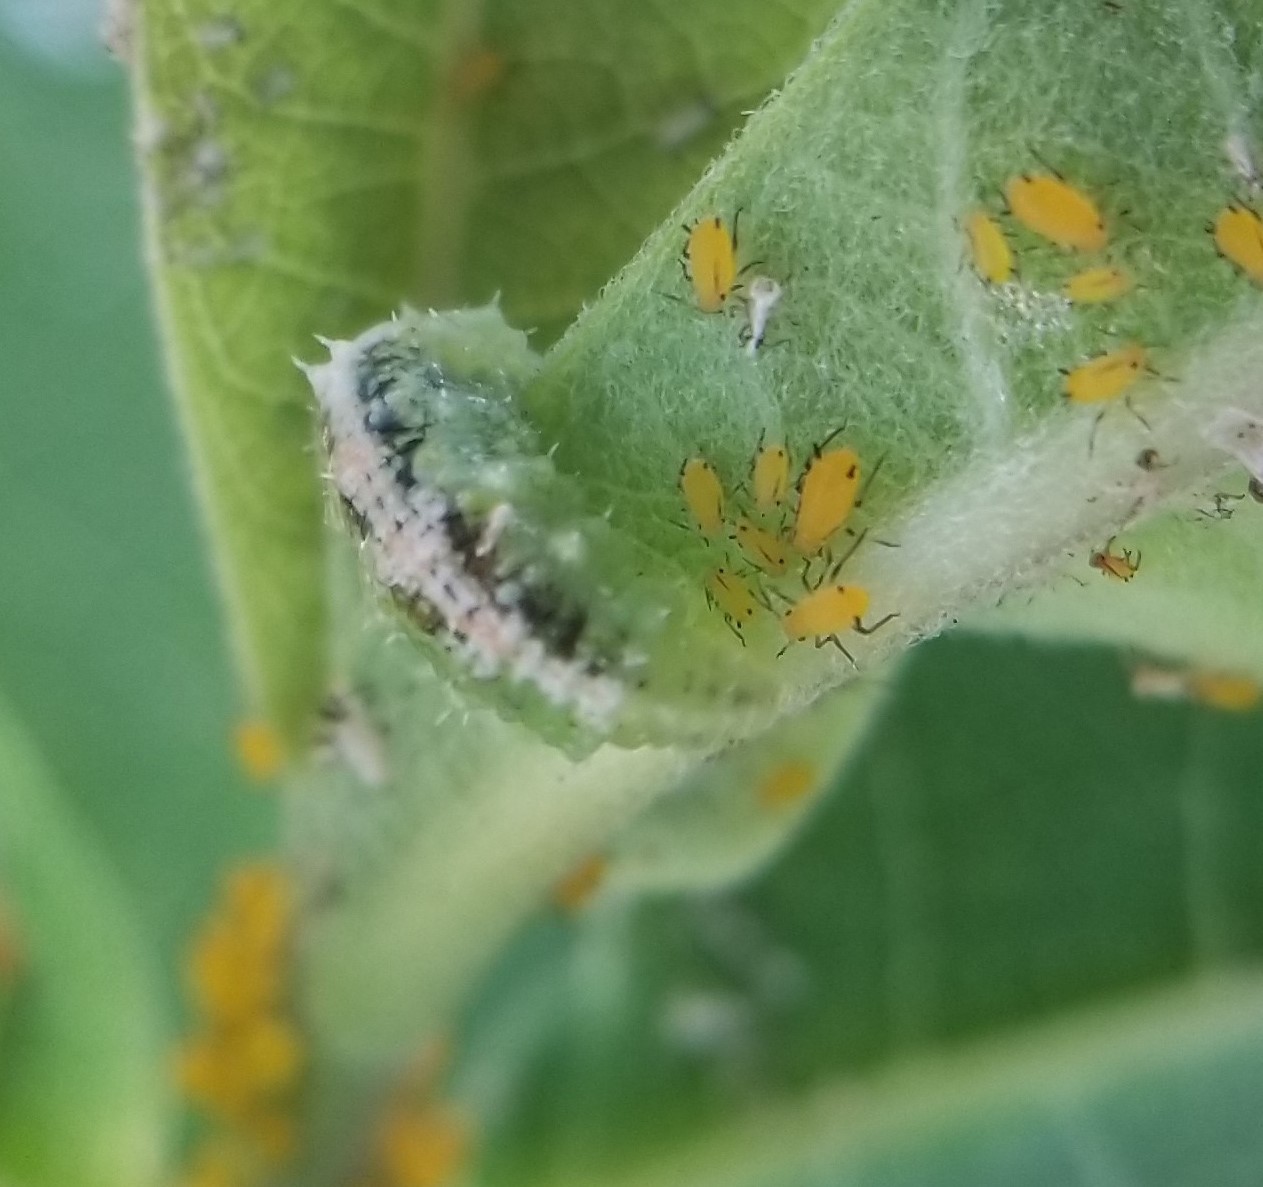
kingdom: Animalia
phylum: Arthropoda
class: Insecta
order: Diptera
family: Syrphidae
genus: Dioprosopa
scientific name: Dioprosopa clavatus
